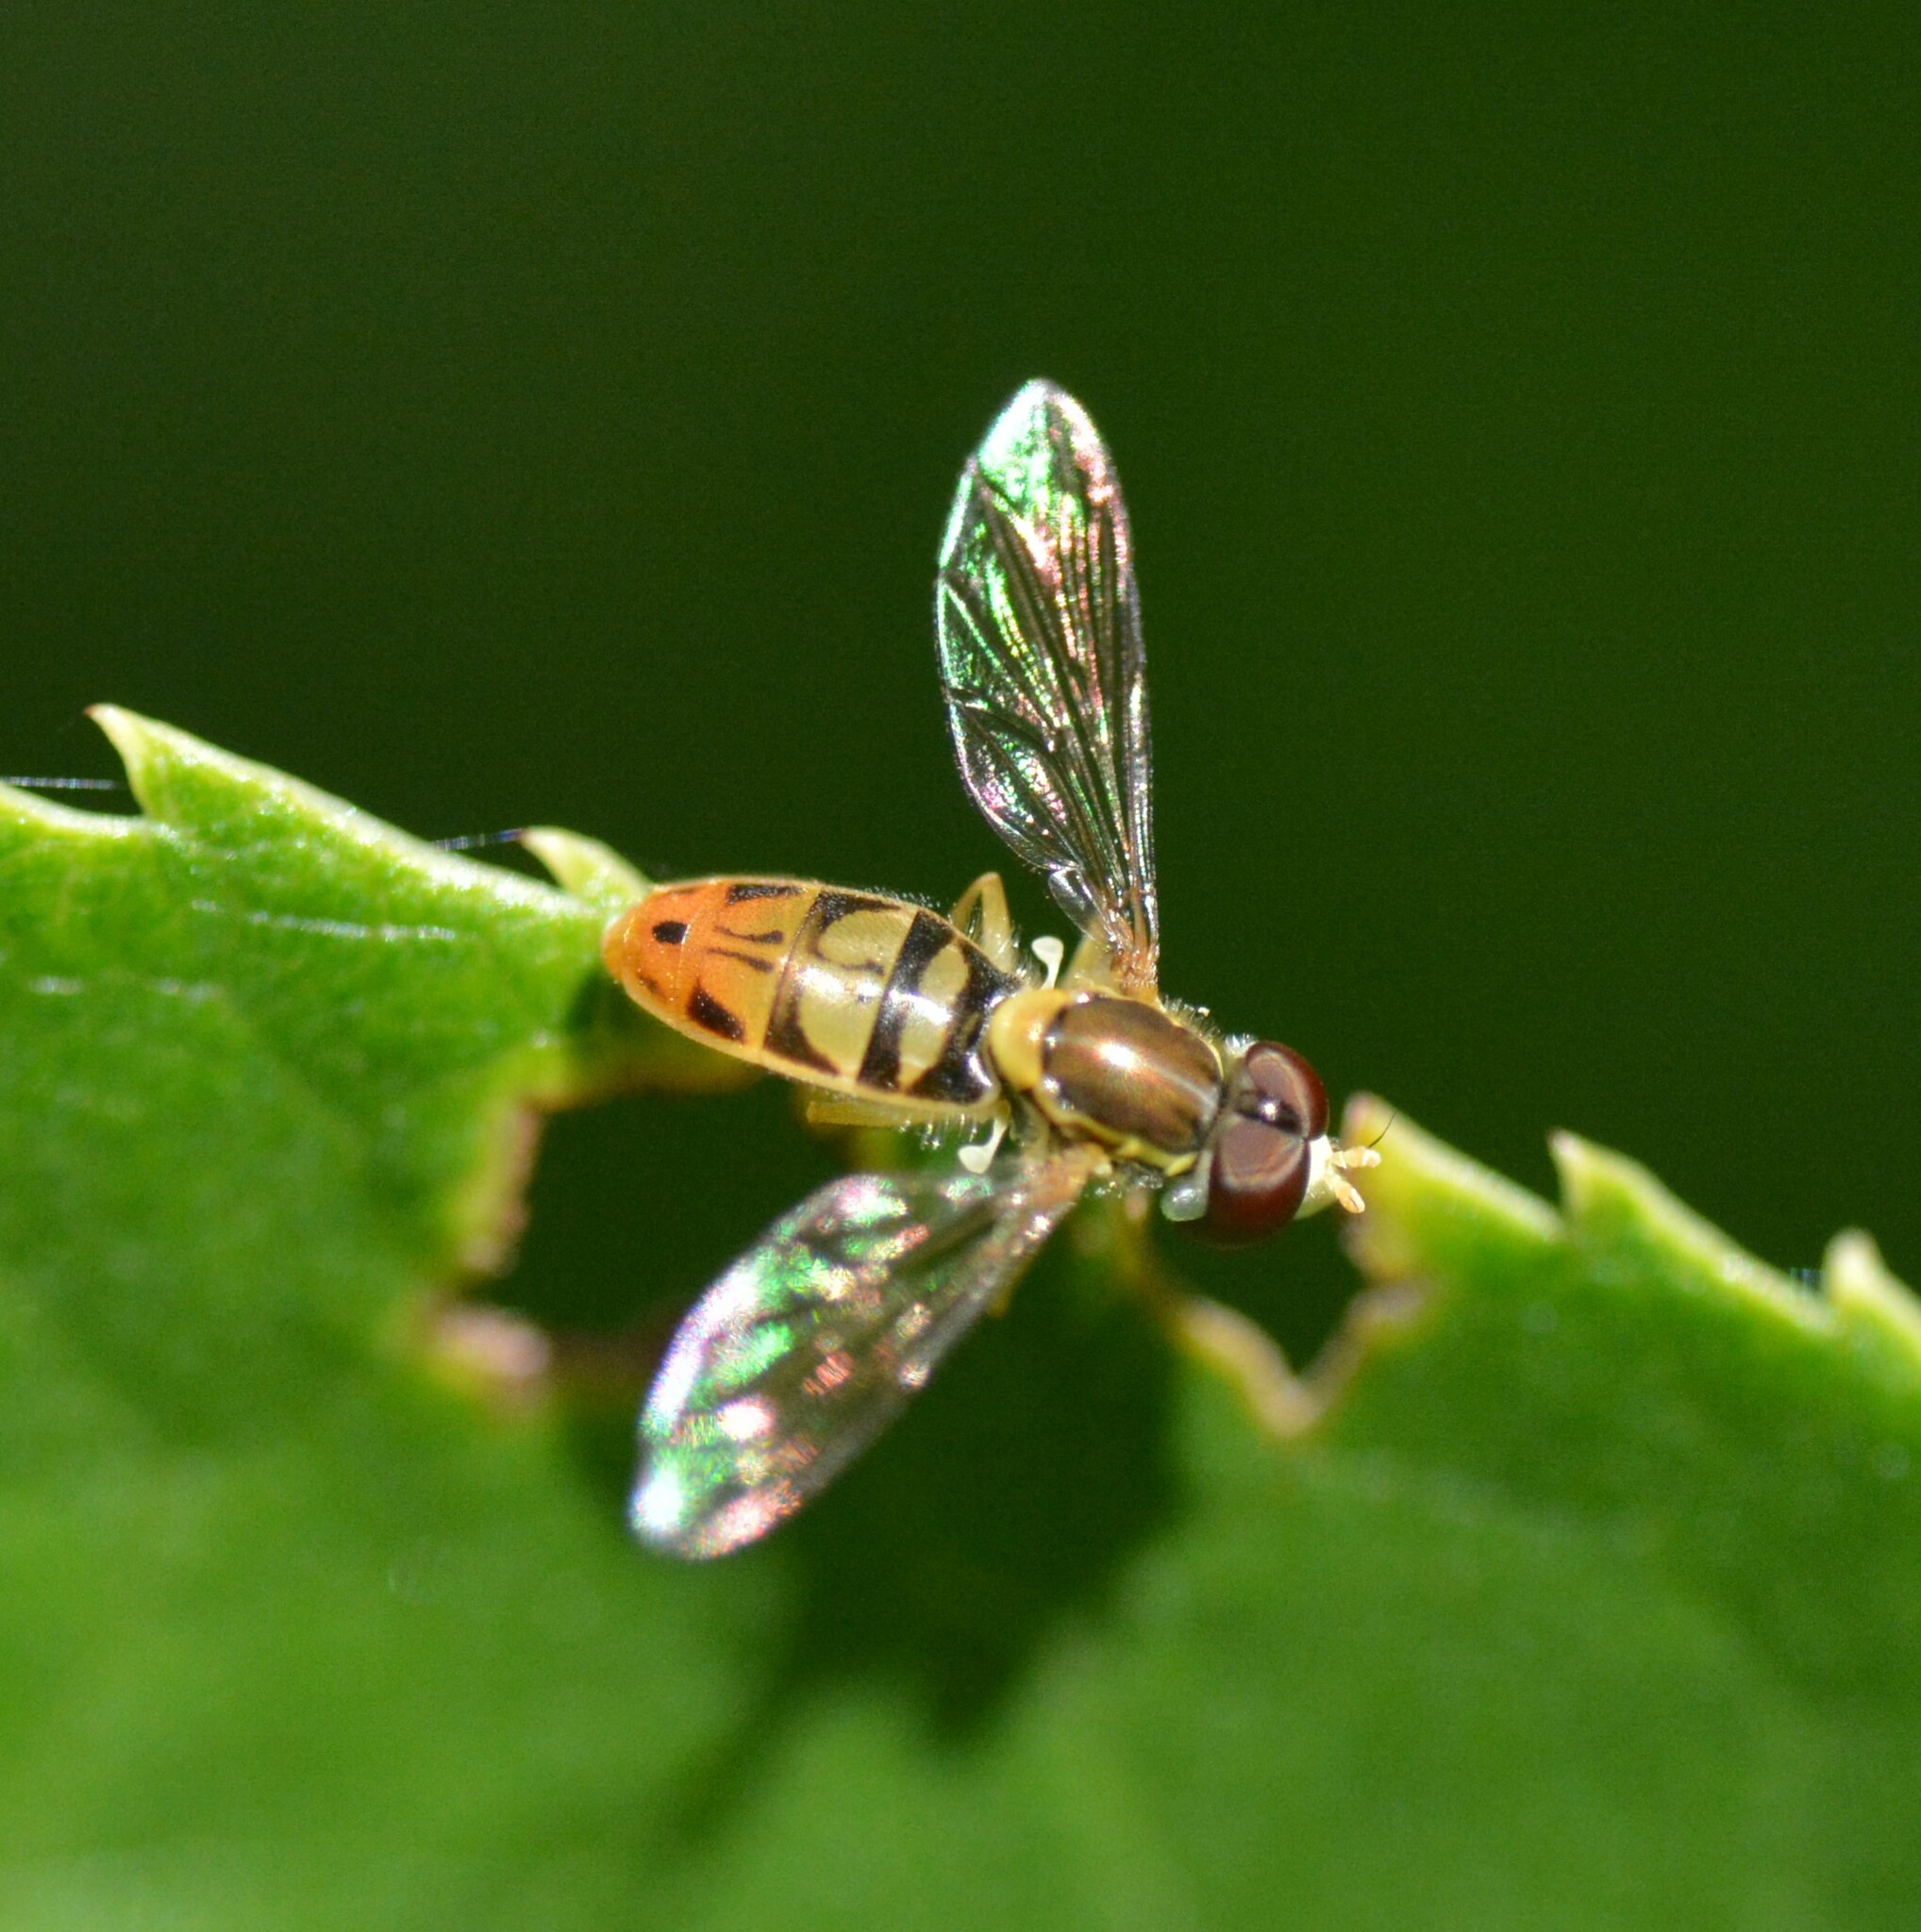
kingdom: Animalia
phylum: Arthropoda
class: Insecta
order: Diptera
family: Syrphidae
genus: Toxomerus
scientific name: Toxomerus marginatus
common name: Syrphid fly
